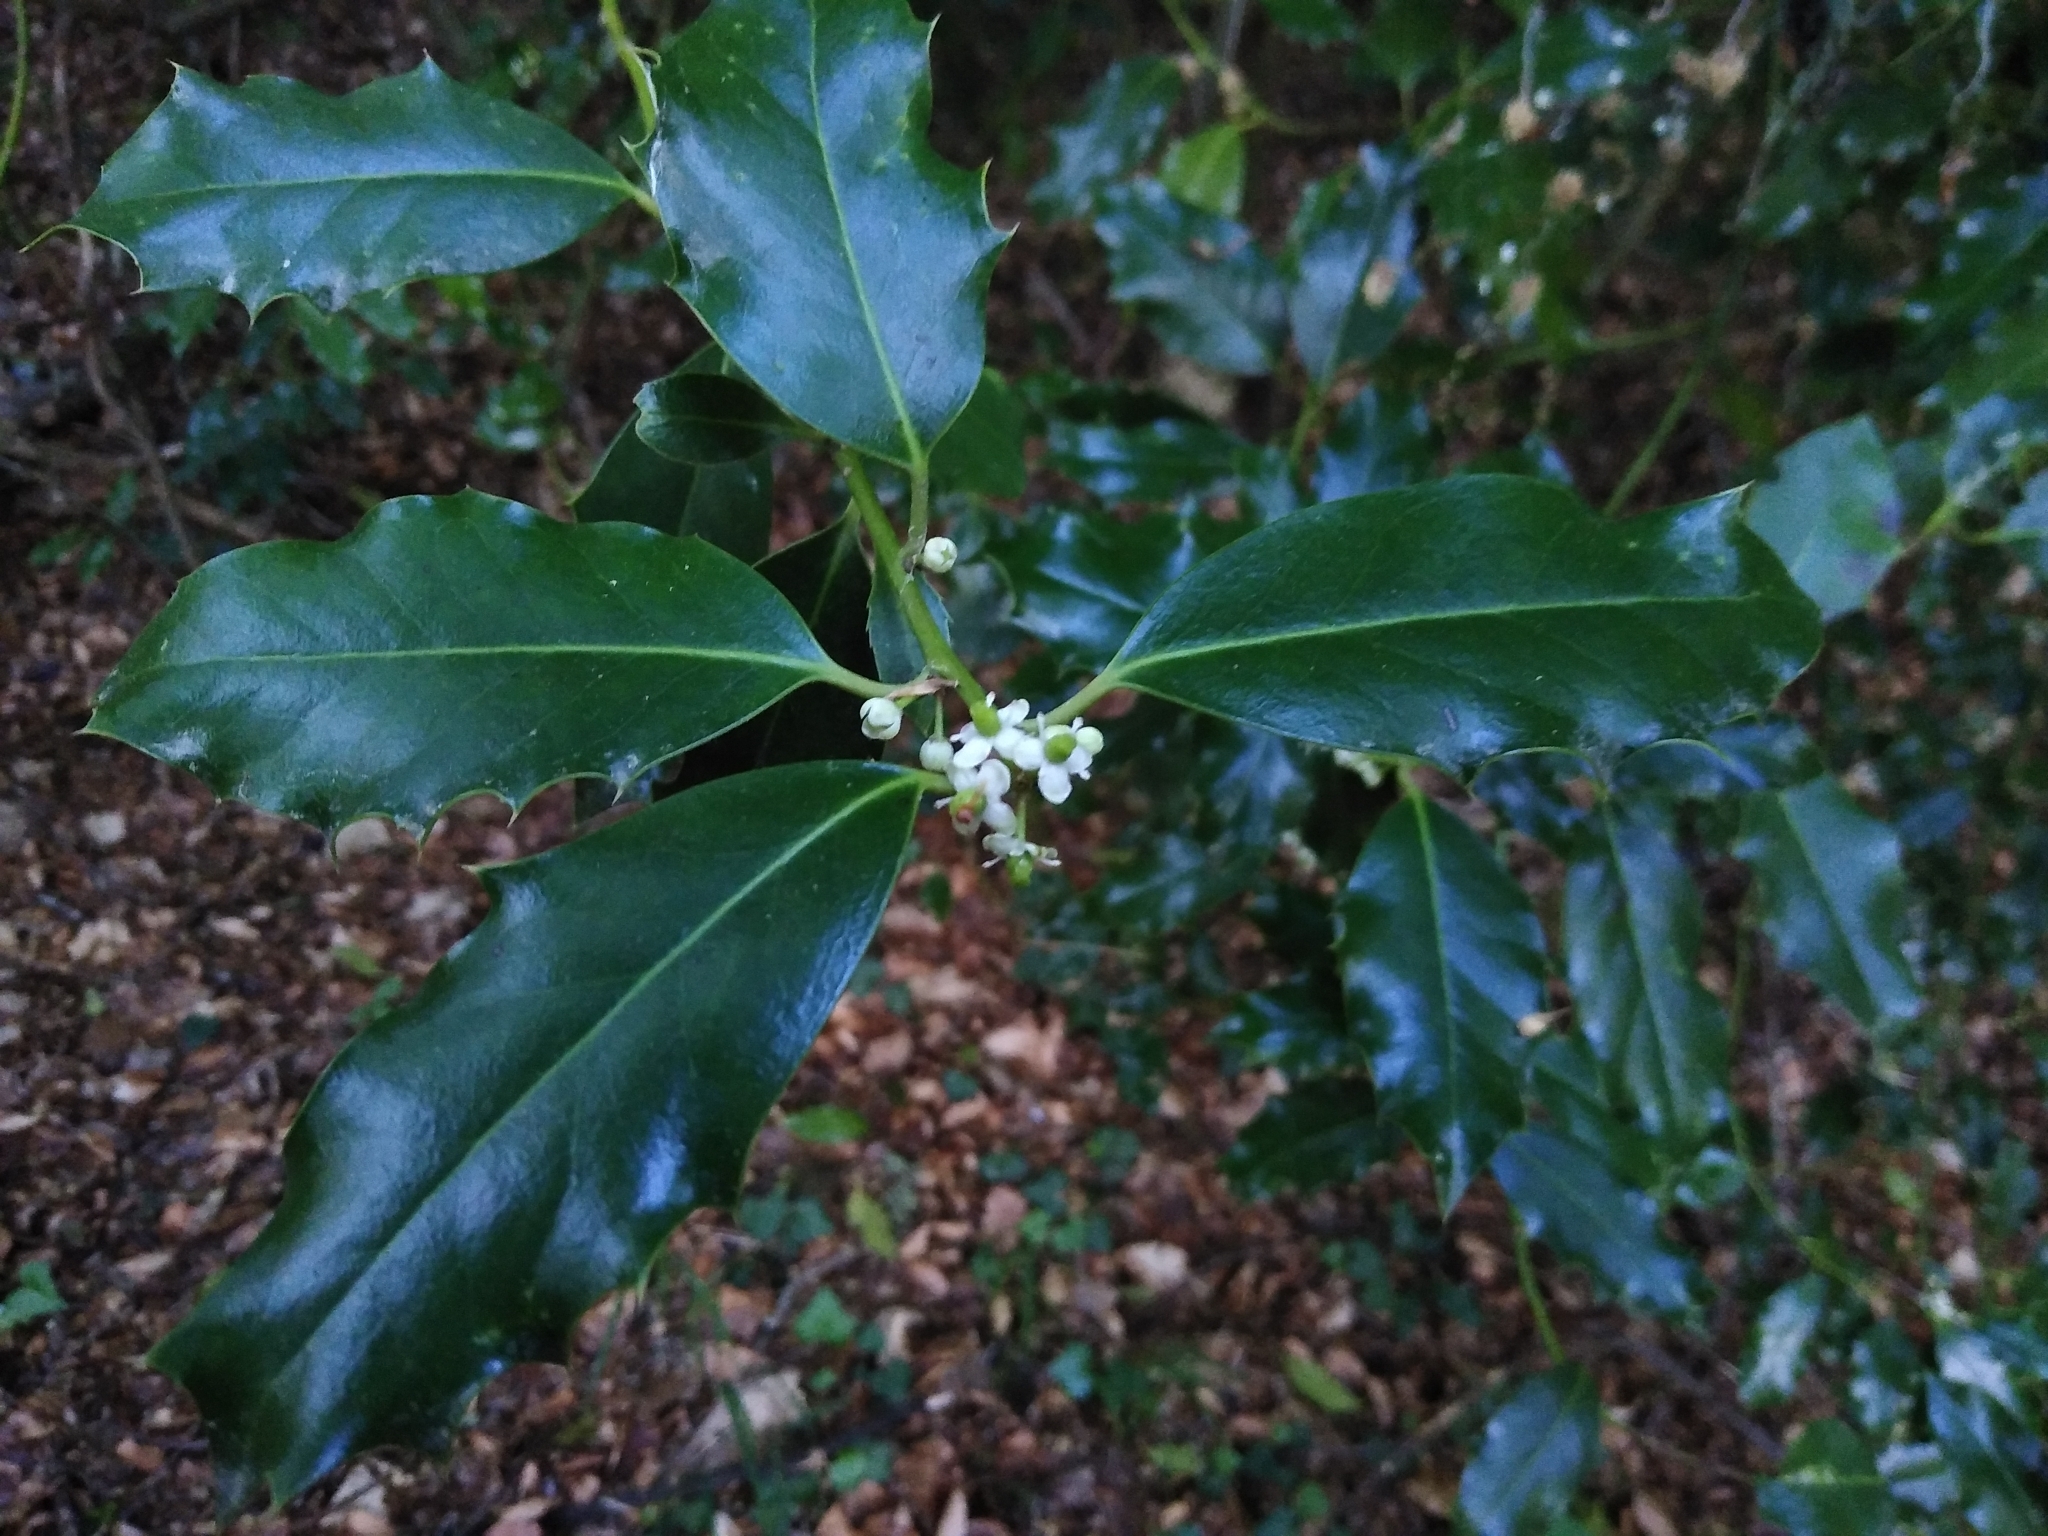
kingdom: Plantae
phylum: Tracheophyta
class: Magnoliopsida
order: Aquifoliales
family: Aquifoliaceae
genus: Ilex
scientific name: Ilex aquifolium
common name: English holly
